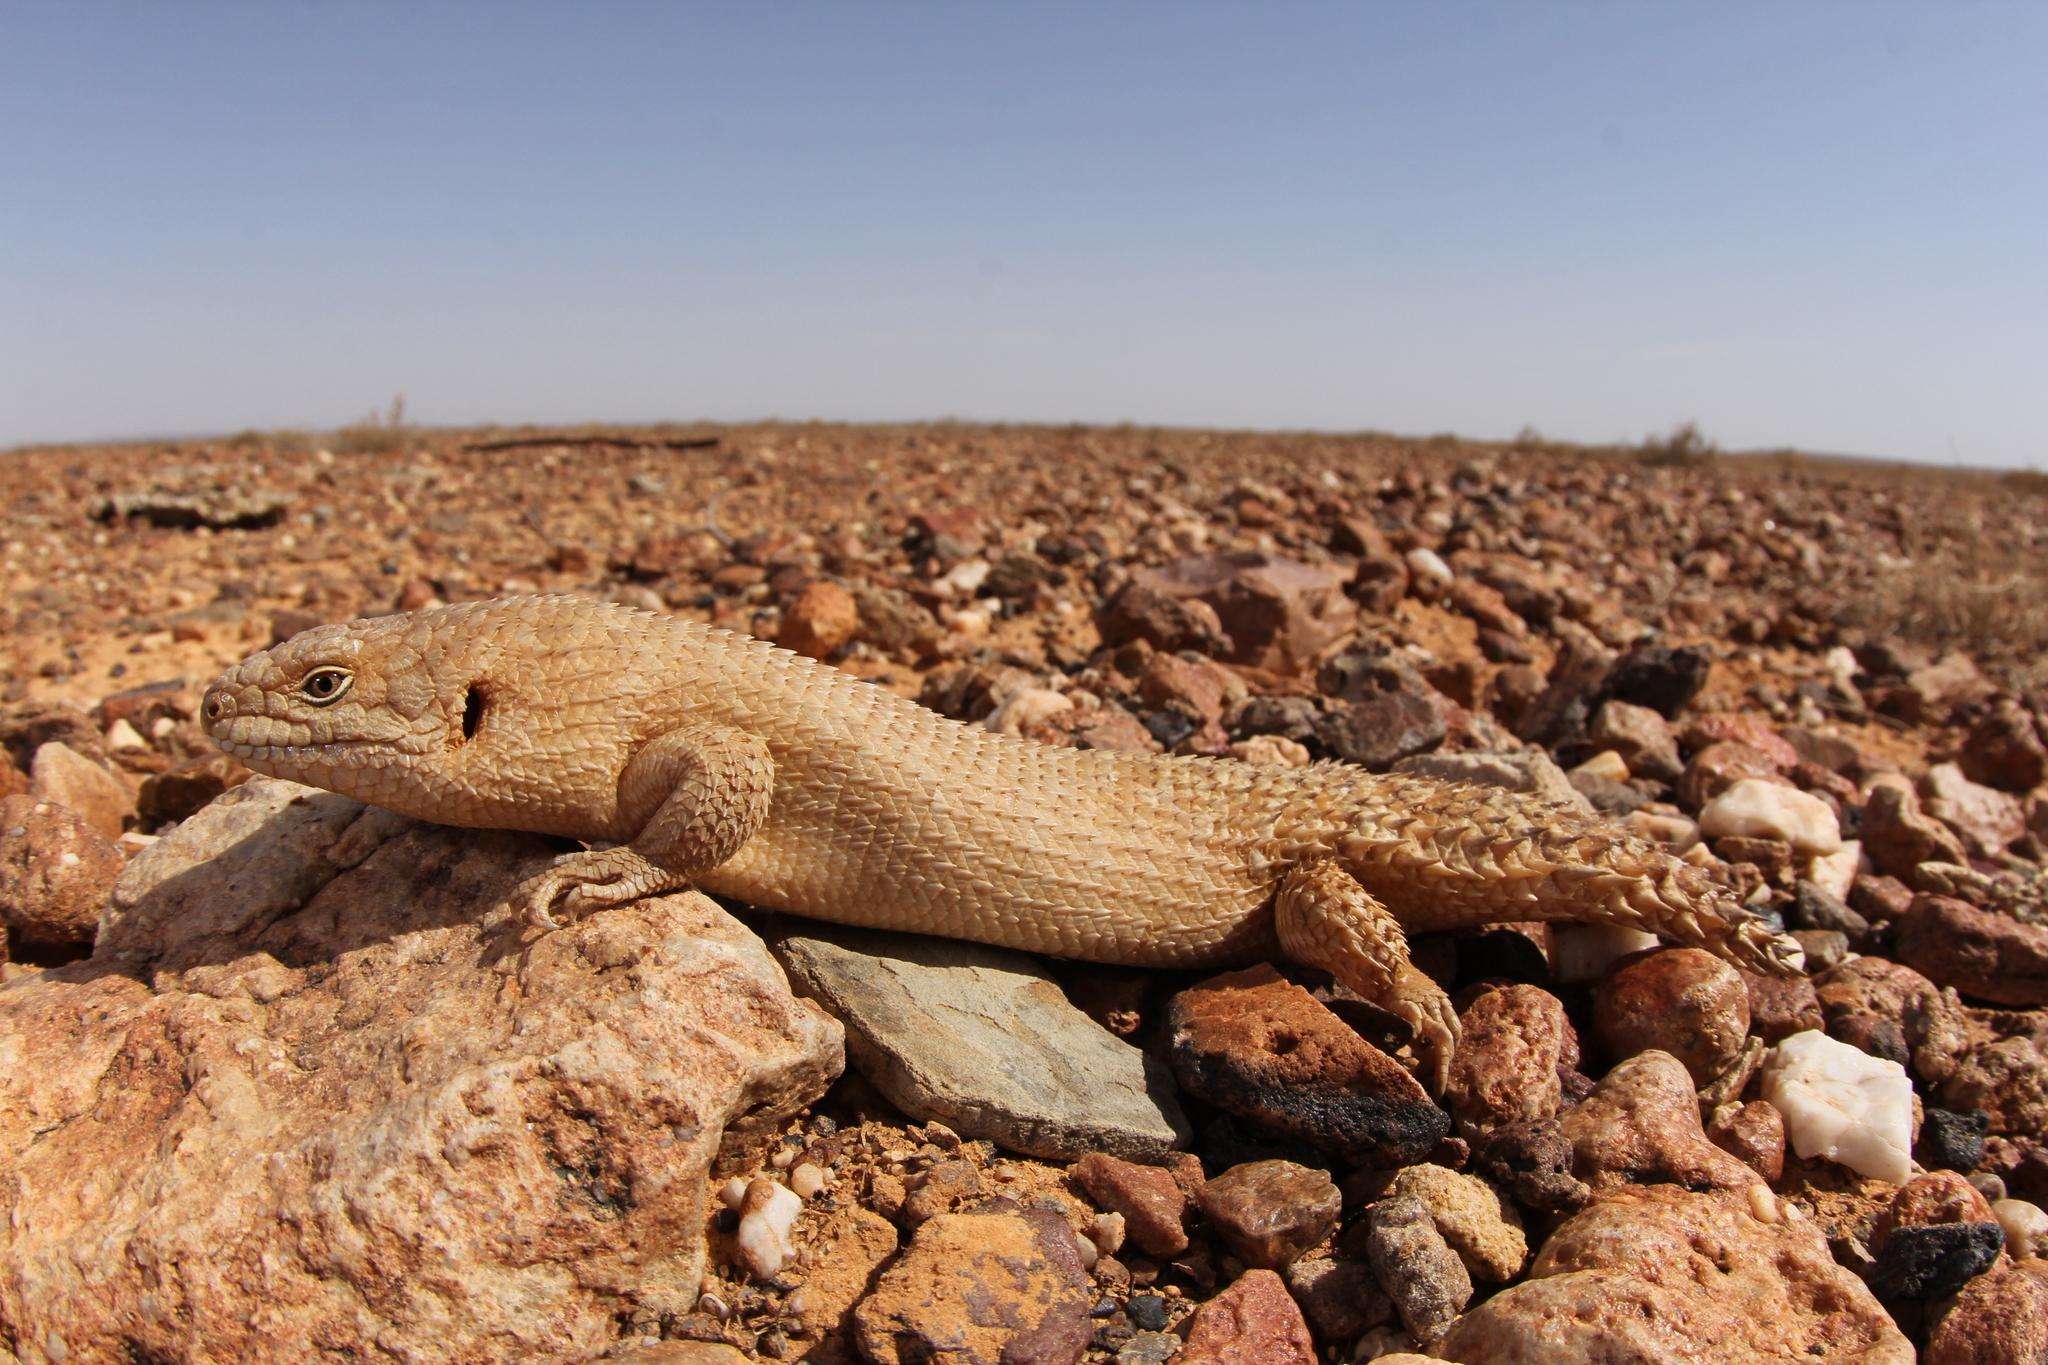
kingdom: Animalia
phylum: Chordata
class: Squamata
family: Scincidae
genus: Egernia
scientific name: Egernia stokesii
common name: Gidgee skink
